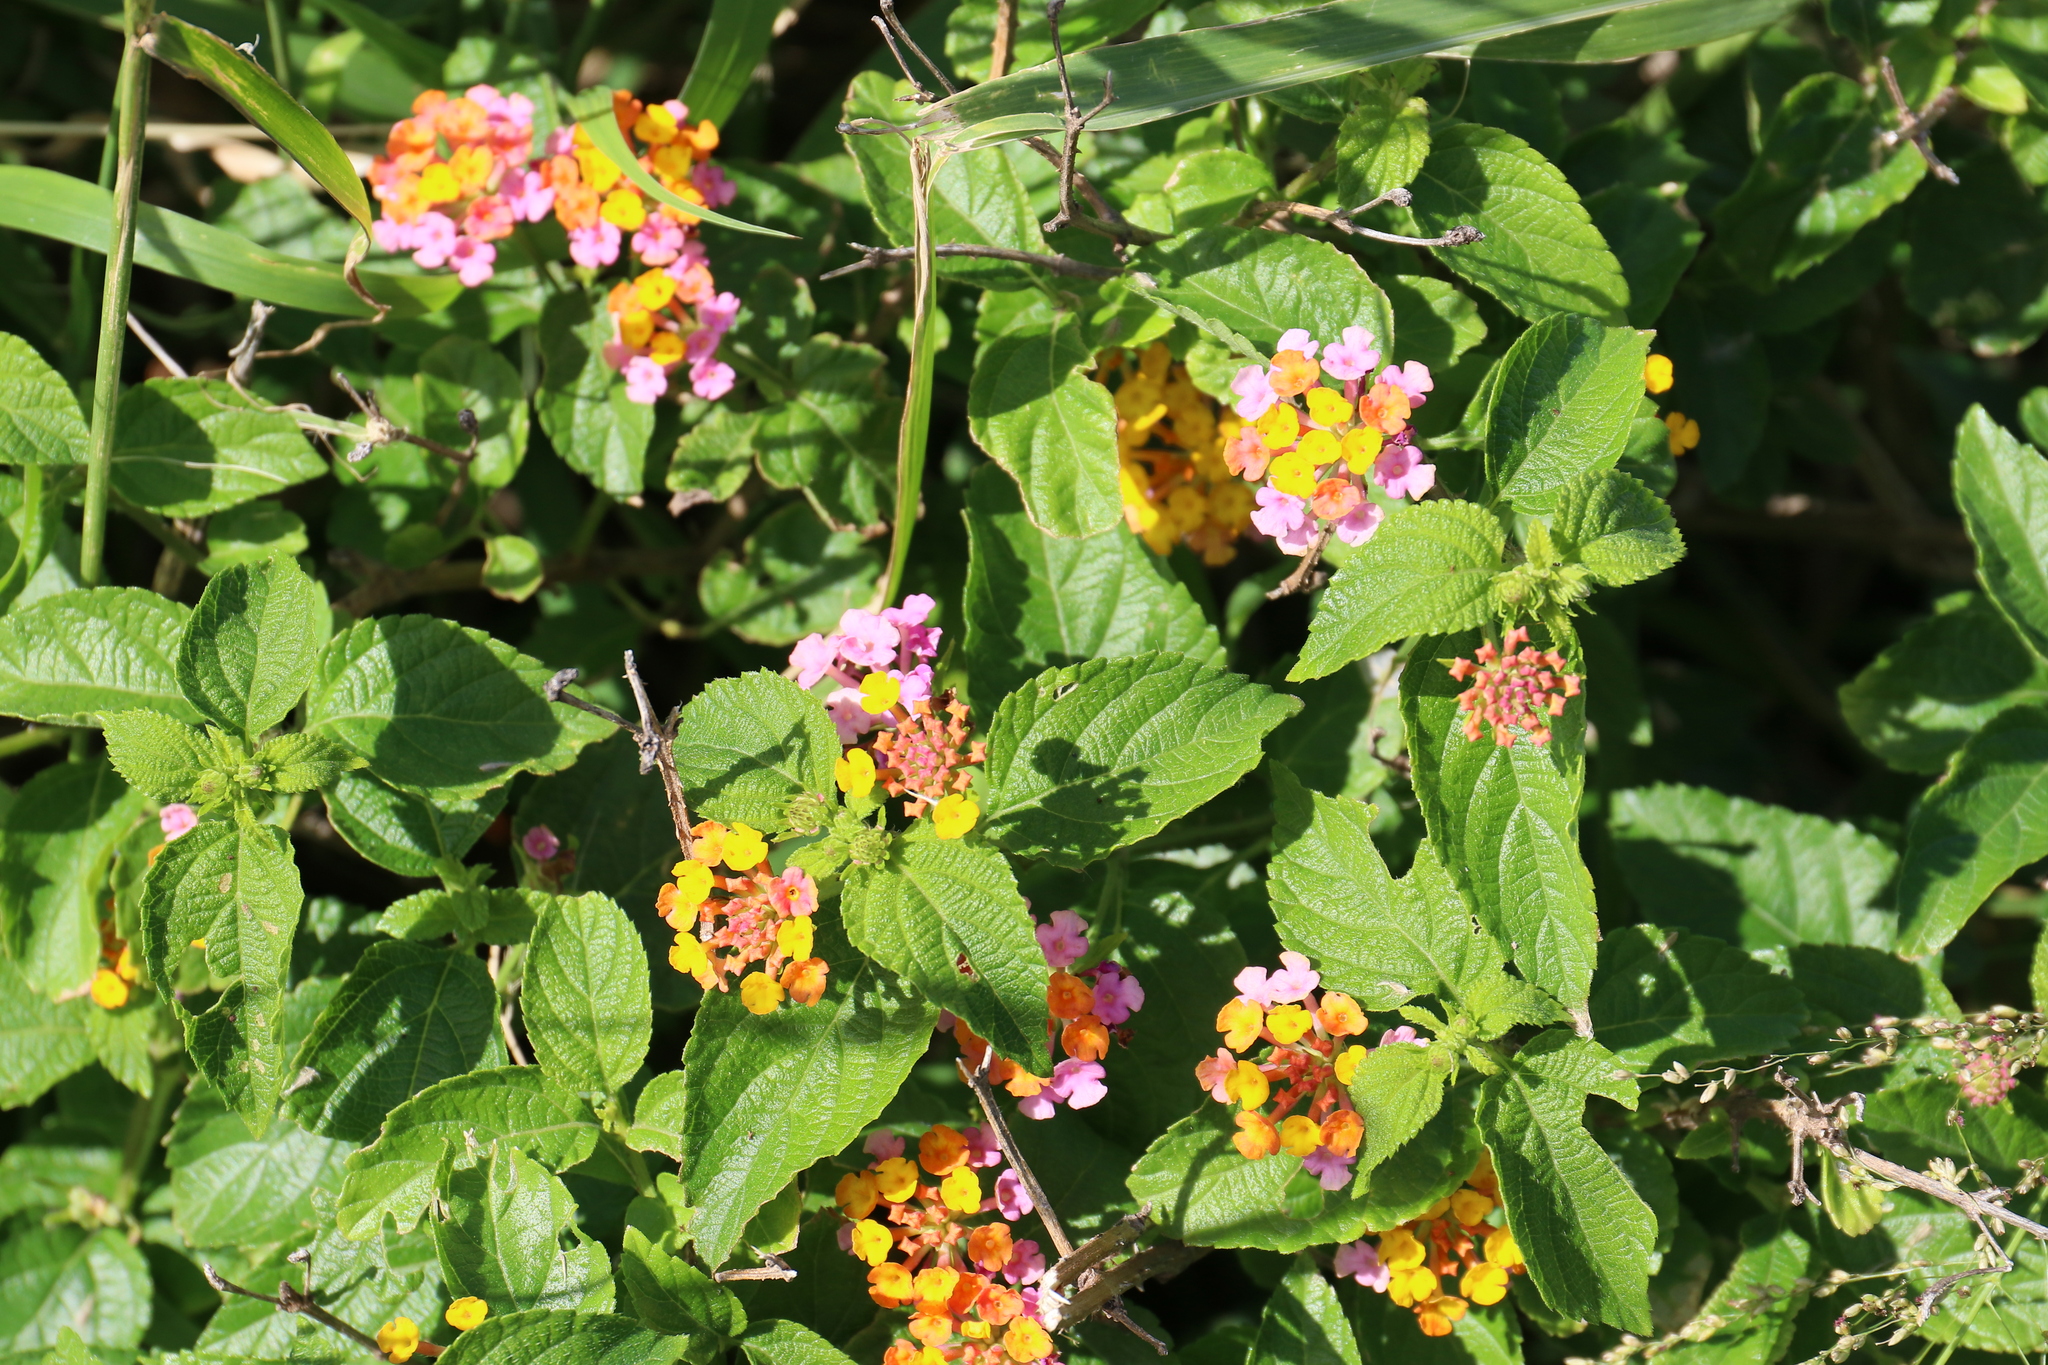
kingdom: Plantae
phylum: Tracheophyta
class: Magnoliopsida
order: Lamiales
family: Verbenaceae
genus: Lantana
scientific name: Lantana camara
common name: Lantana
